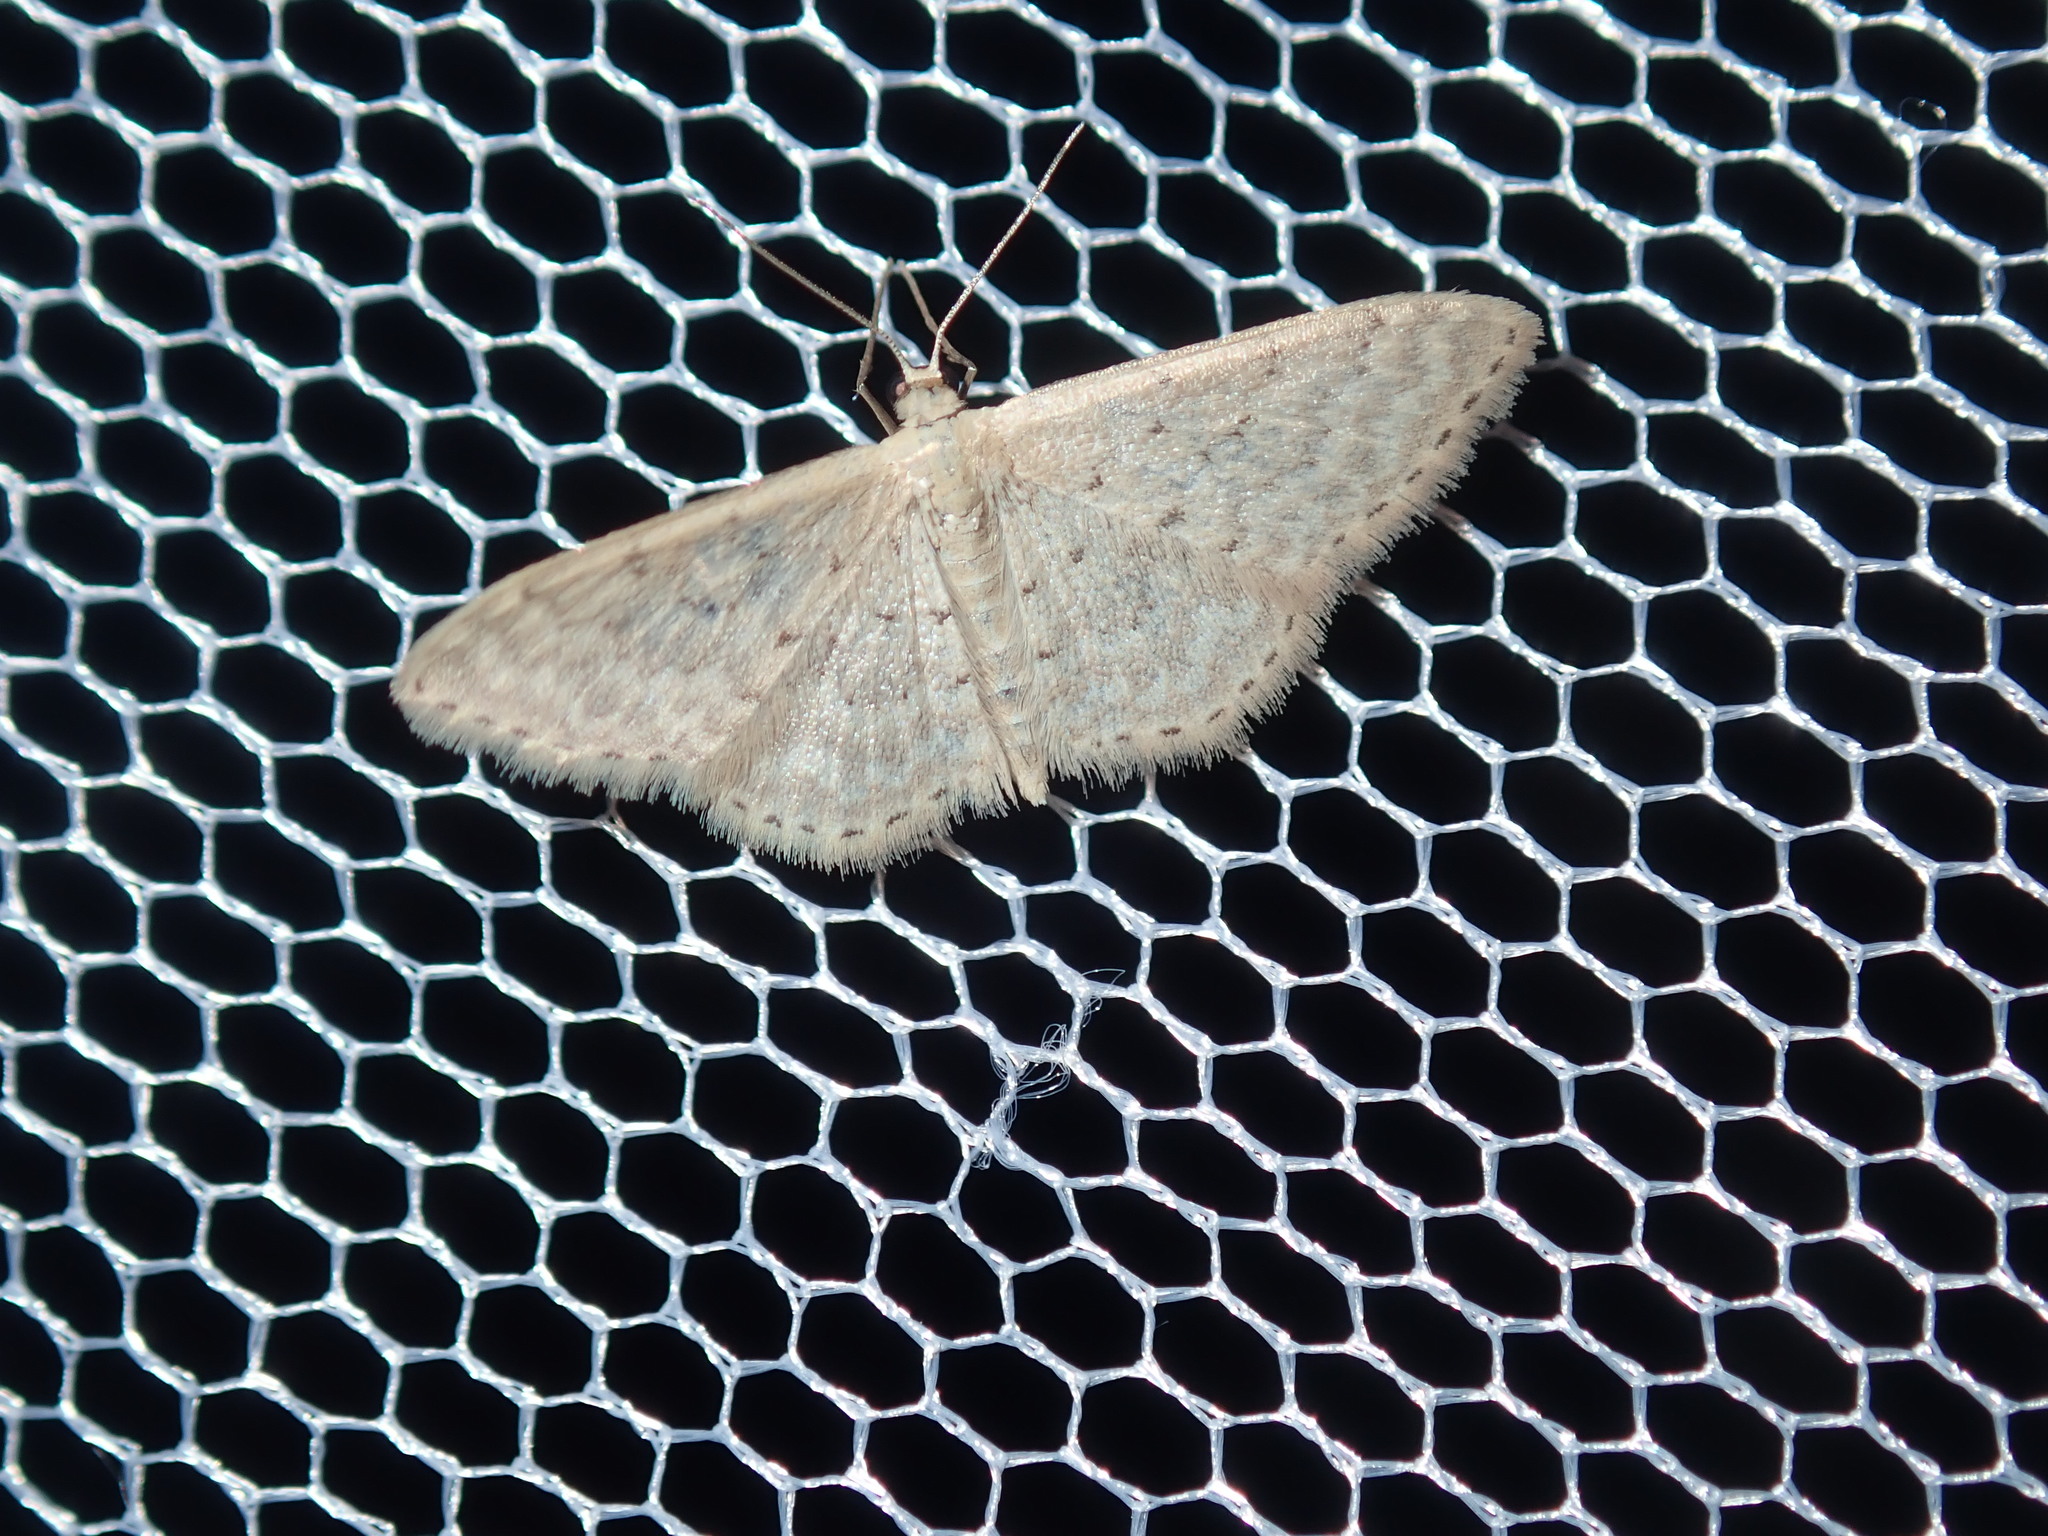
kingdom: Animalia
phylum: Arthropoda
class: Insecta
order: Lepidoptera
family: Geometridae
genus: Idaea
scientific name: Idaea philocosma
